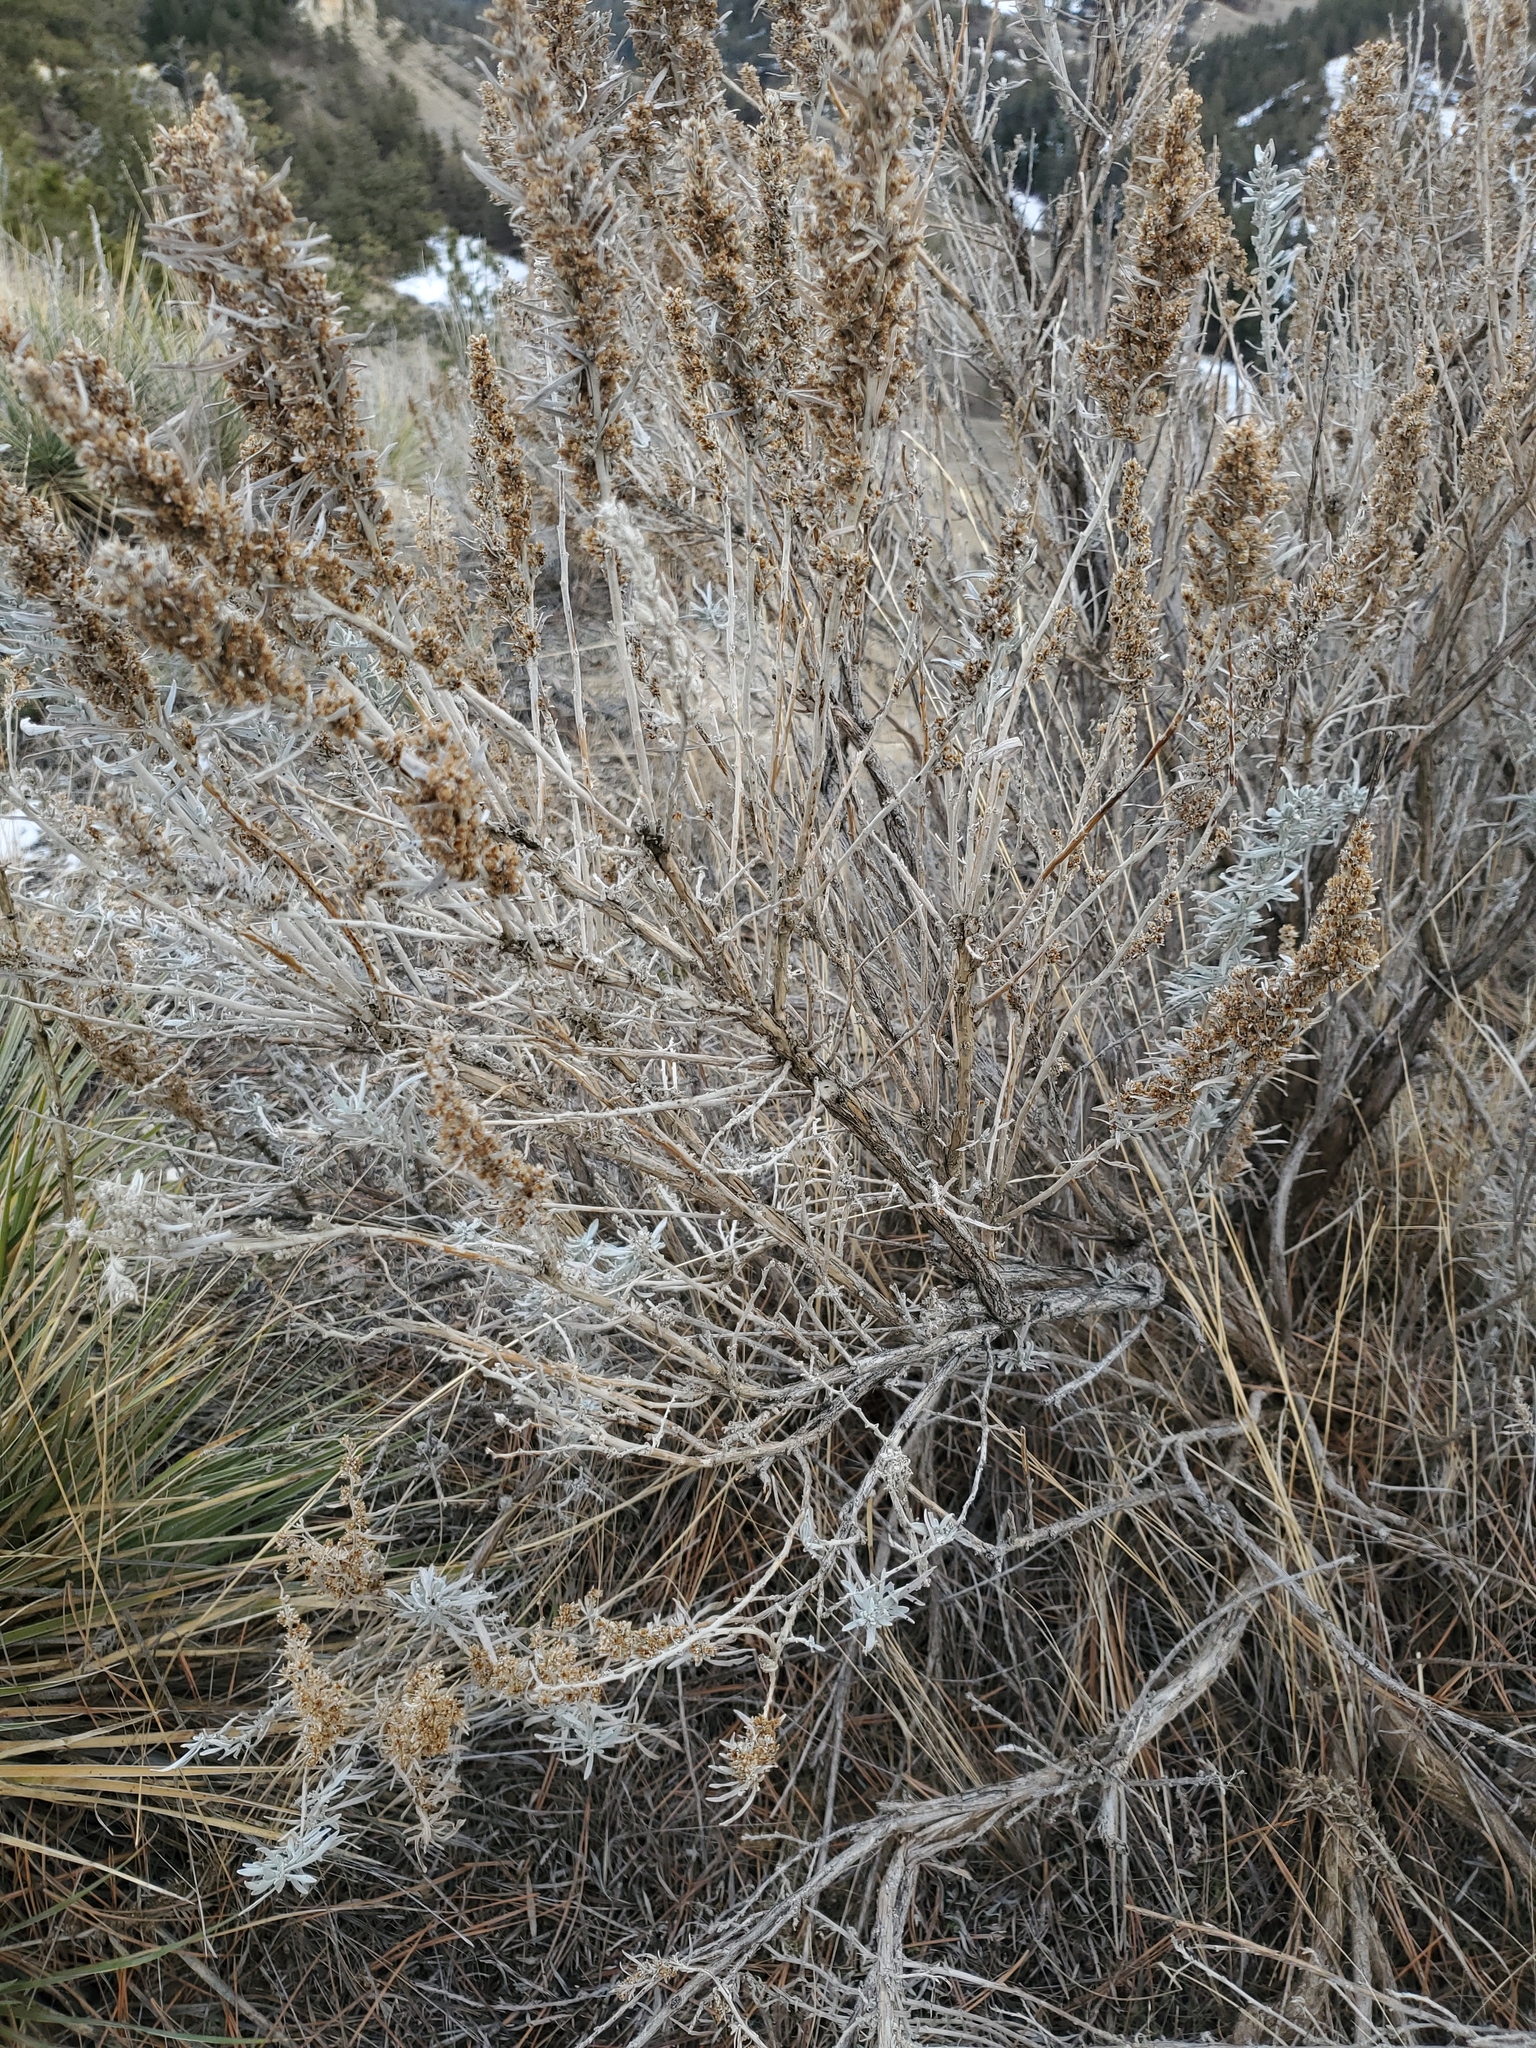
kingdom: Plantae
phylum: Tracheophyta
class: Magnoliopsida
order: Asterales
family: Asteraceae
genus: Artemisia
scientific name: Artemisia cana
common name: Silver sagebrush
